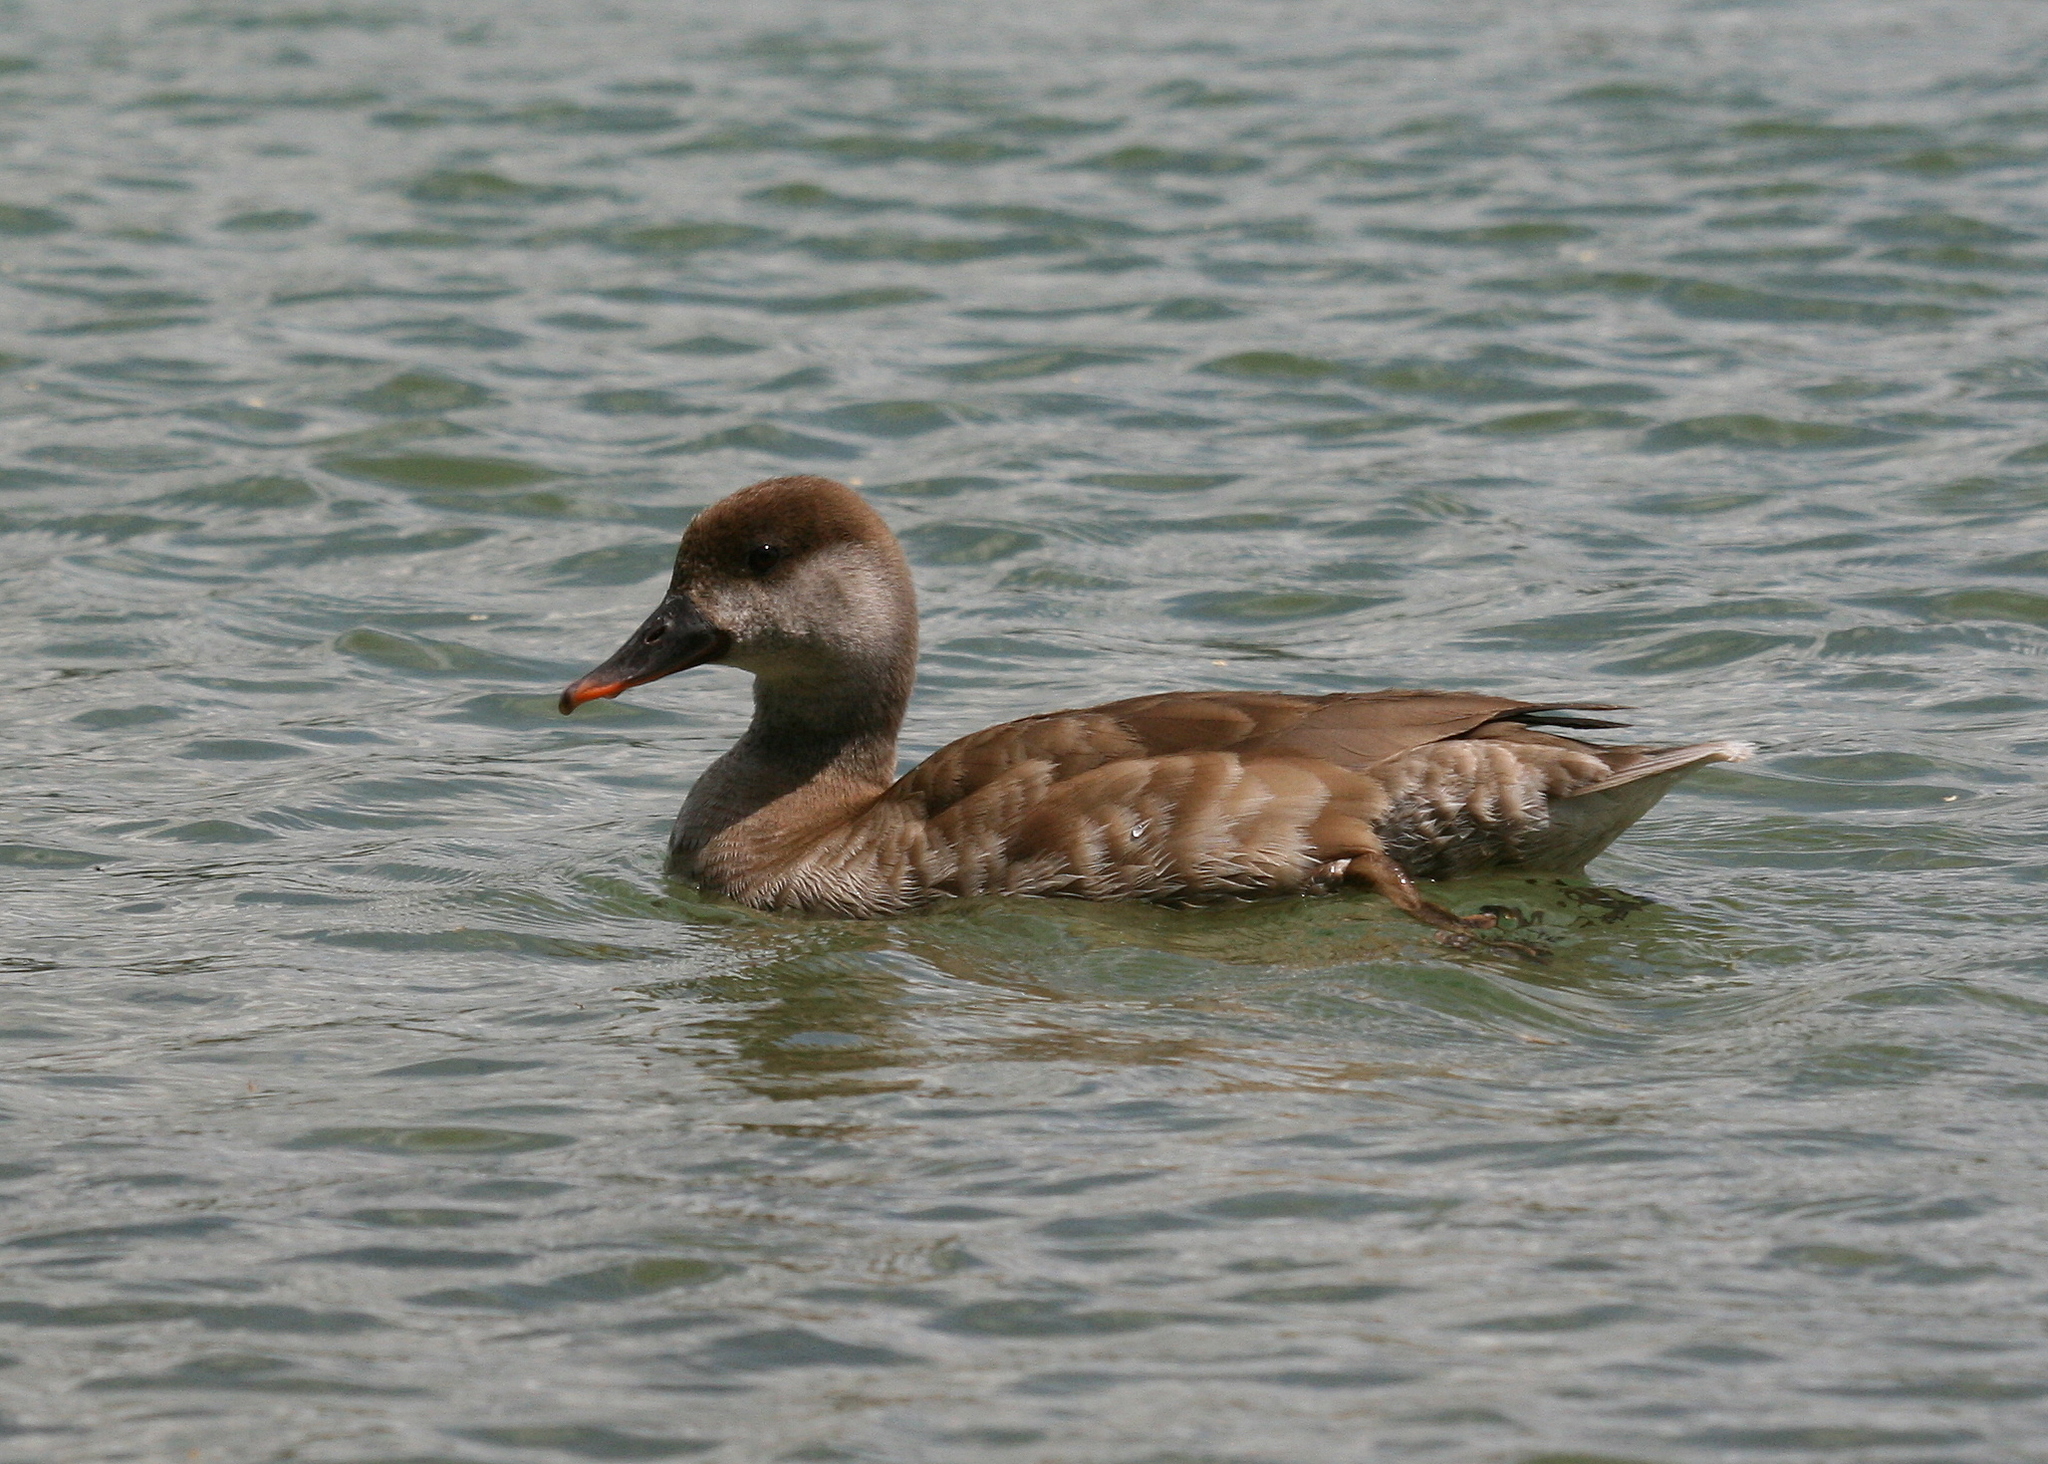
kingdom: Animalia
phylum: Chordata
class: Aves
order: Anseriformes
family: Anatidae
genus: Netta
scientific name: Netta rufina
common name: Red-crested pochard
